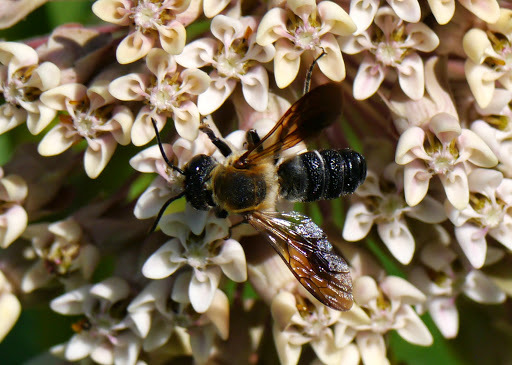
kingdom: Animalia
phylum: Arthropoda
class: Insecta
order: Hymenoptera
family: Megachilidae
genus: Megachile
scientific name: Megachile sculpturalis
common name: Sculptured resin bee
